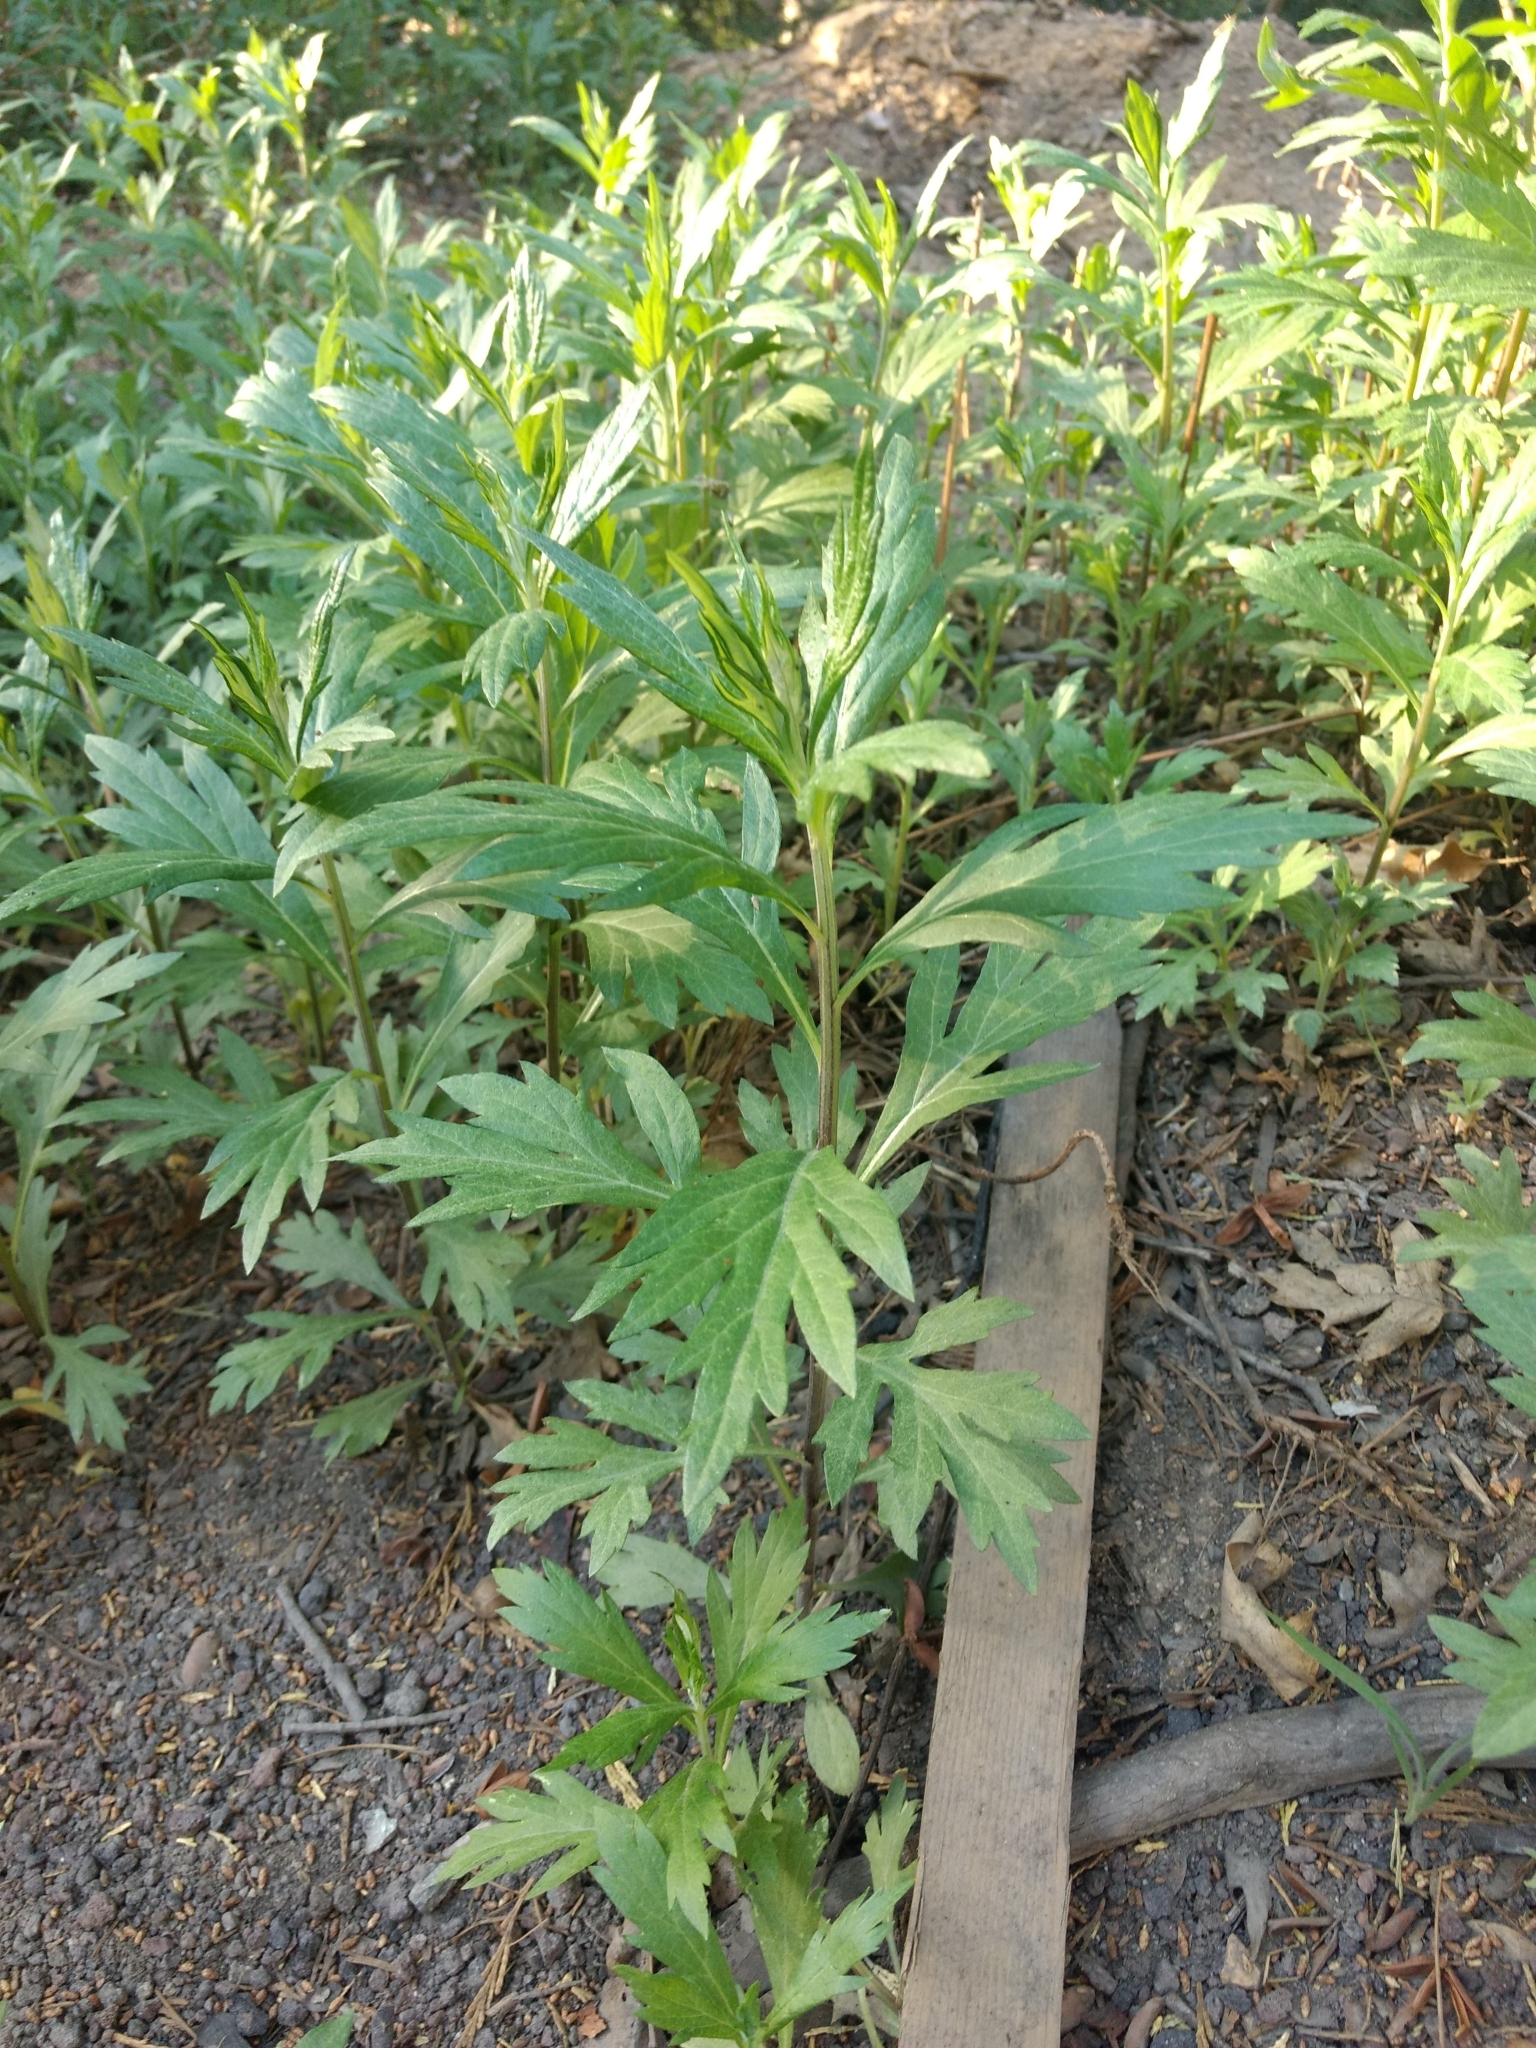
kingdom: Plantae
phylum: Tracheophyta
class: Magnoliopsida
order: Asterales
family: Asteraceae
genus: Artemisia
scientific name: Artemisia douglasiana
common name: Northwest mugwort
